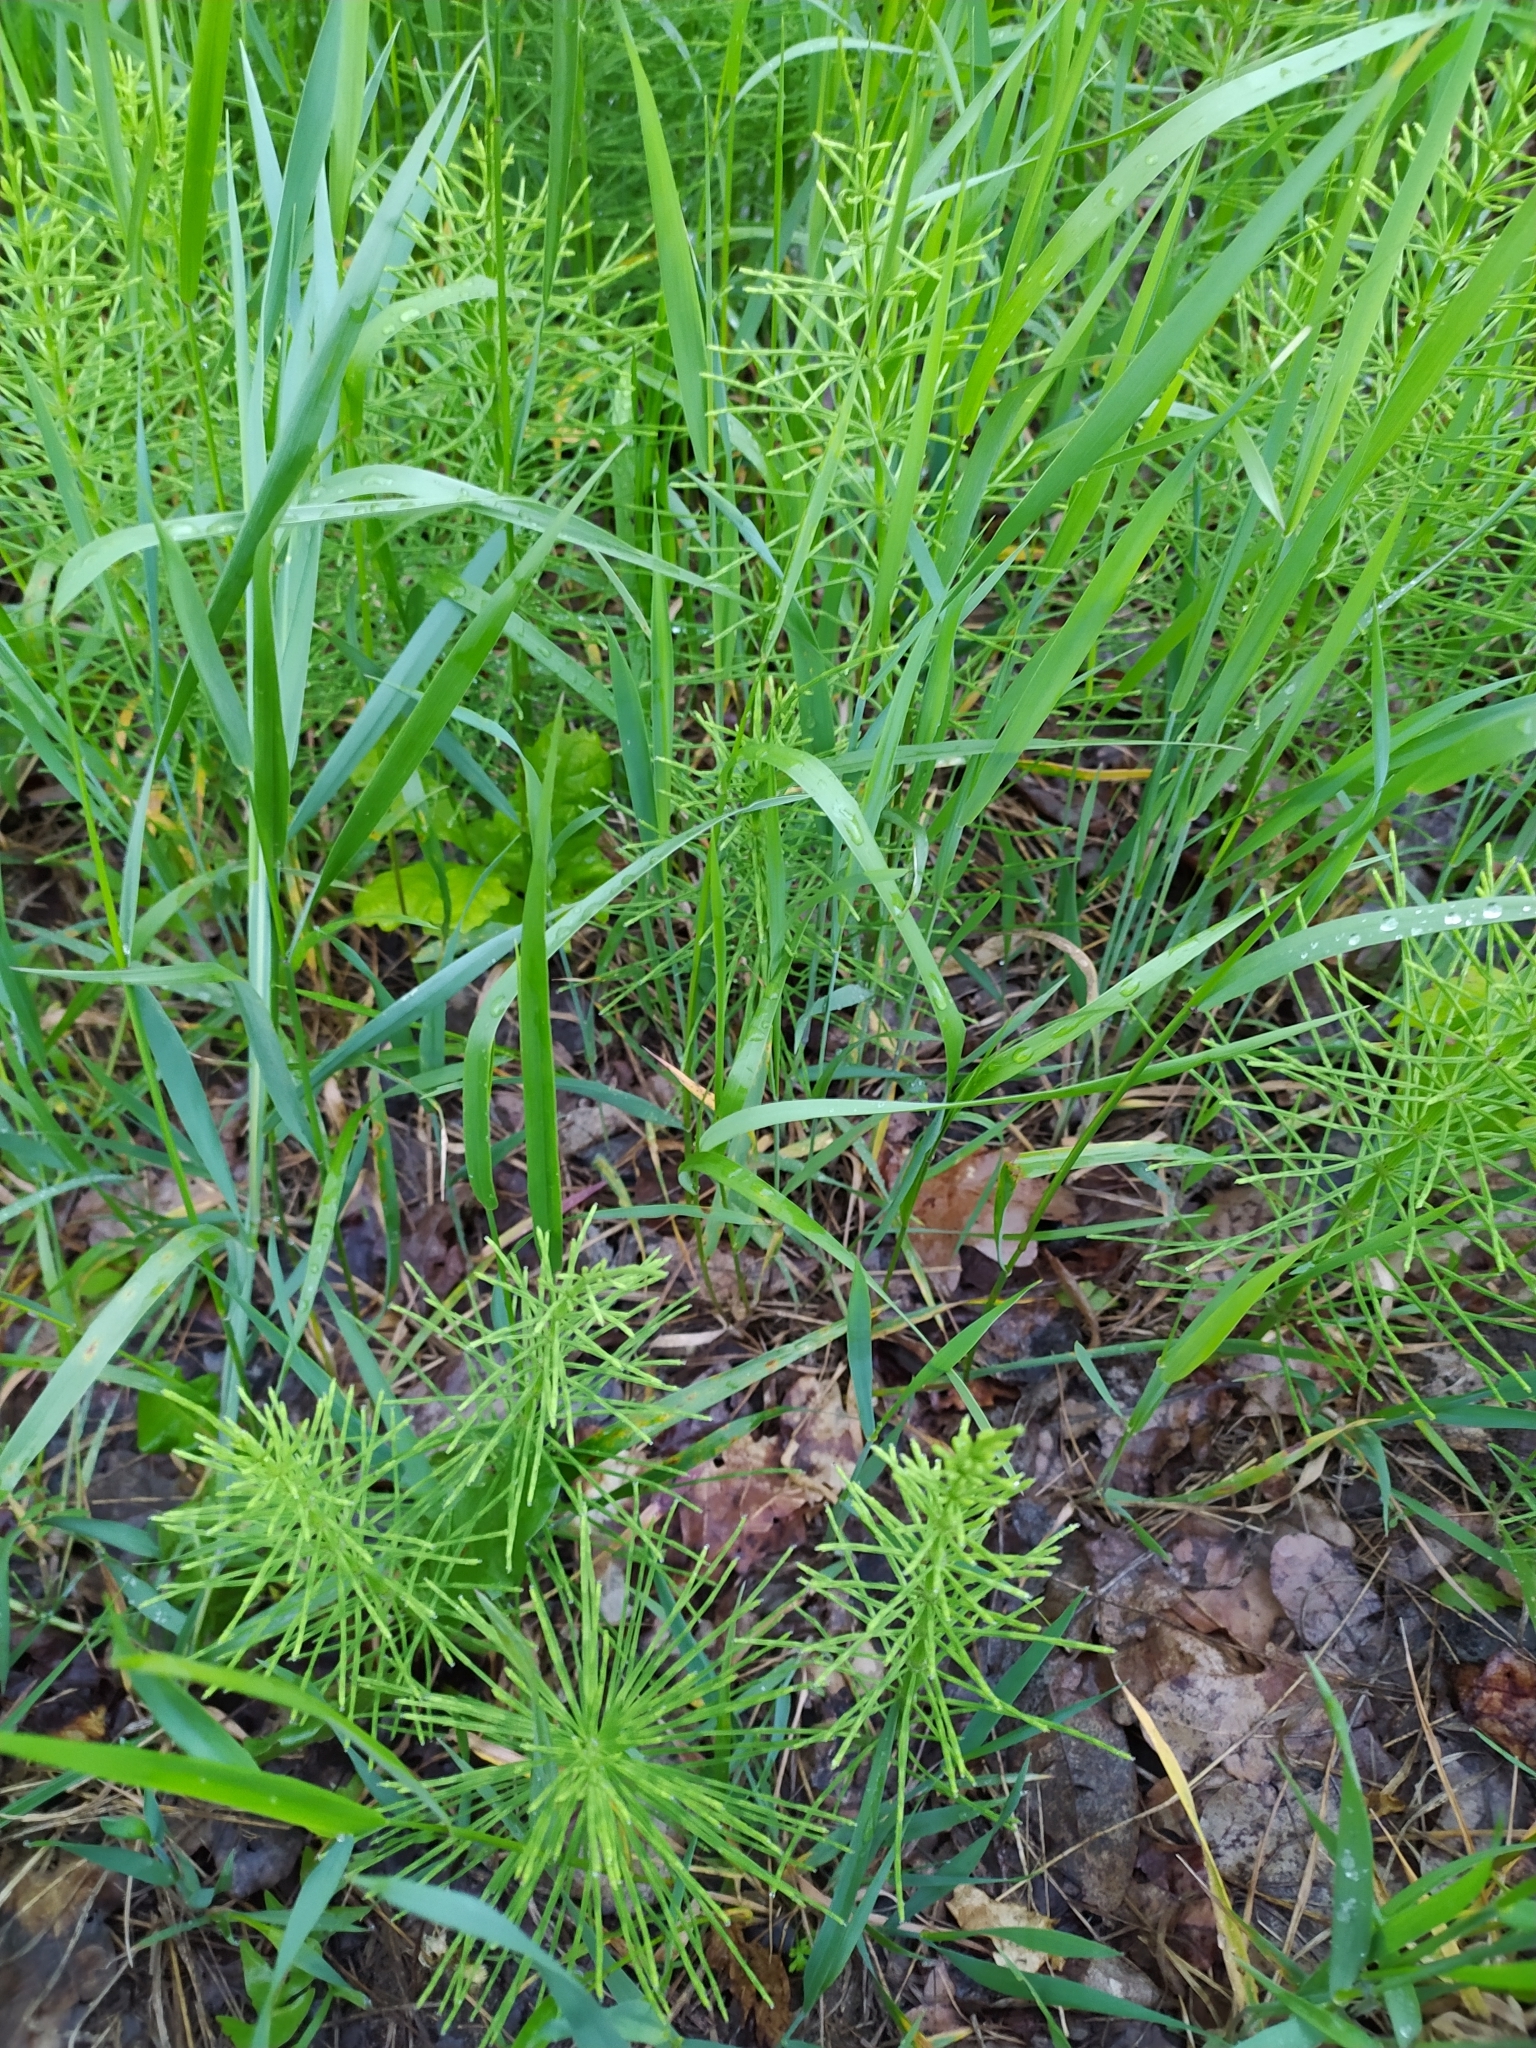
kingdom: Plantae
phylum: Tracheophyta
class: Polypodiopsida
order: Equisetales
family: Equisetaceae
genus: Equisetum
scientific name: Equisetum arvense
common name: Field horsetail
